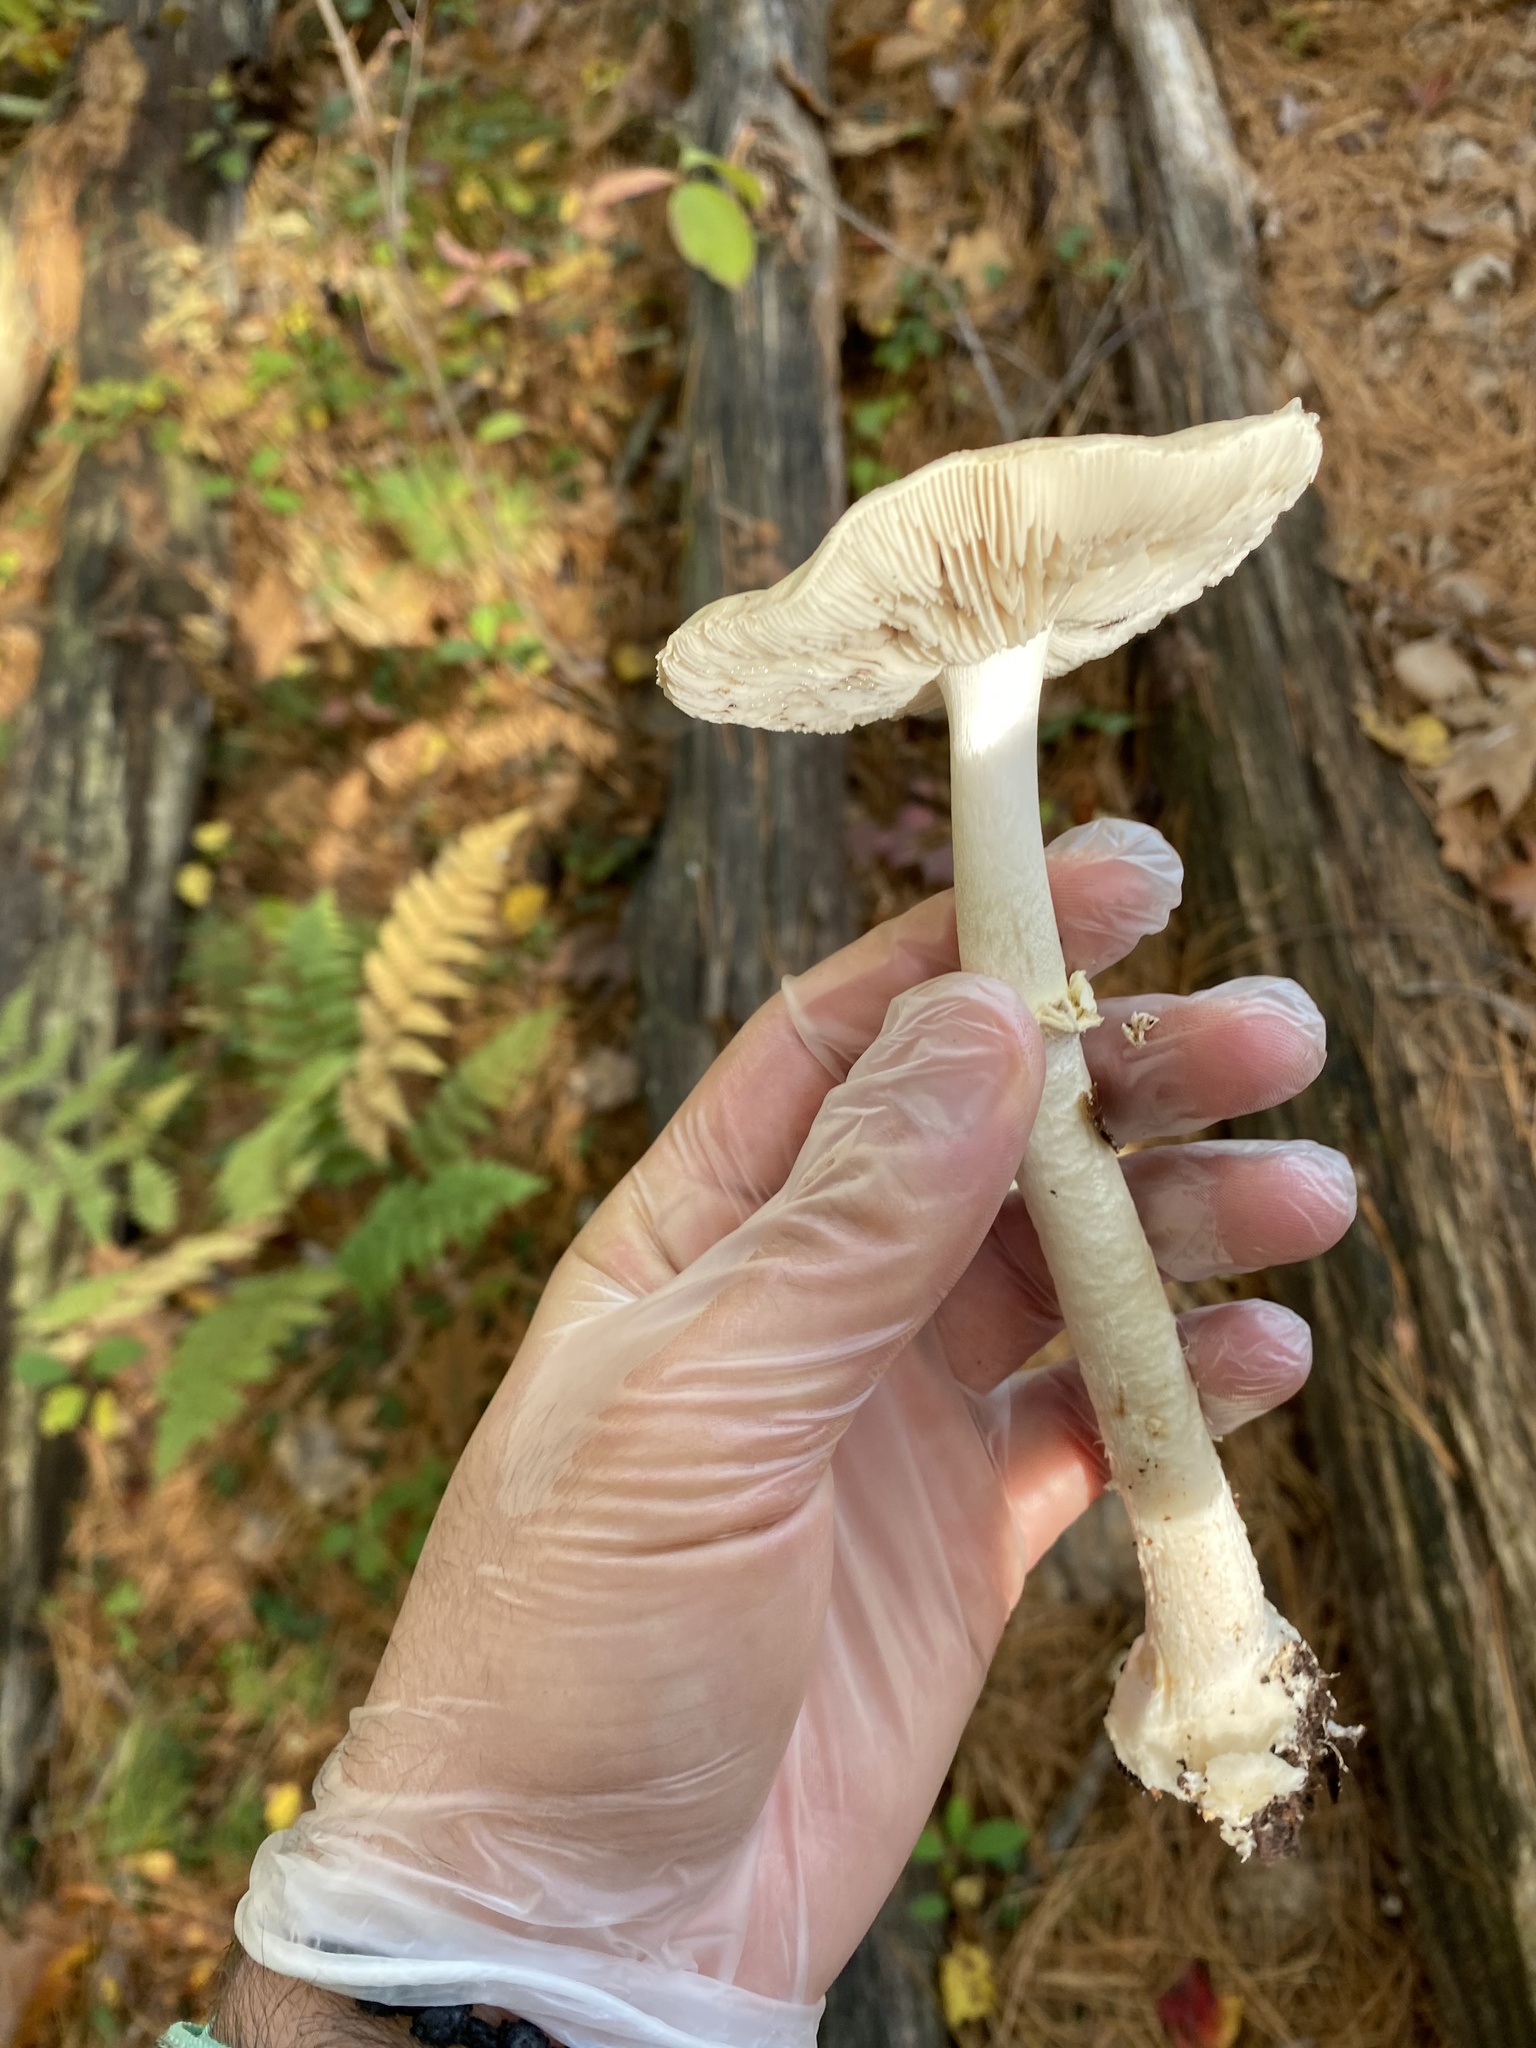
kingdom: Fungi
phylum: Basidiomycota
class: Agaricomycetes
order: Agaricales
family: Amanitaceae
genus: Amanita
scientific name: Amanita brunnescens
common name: Brown american star-footed amanita
